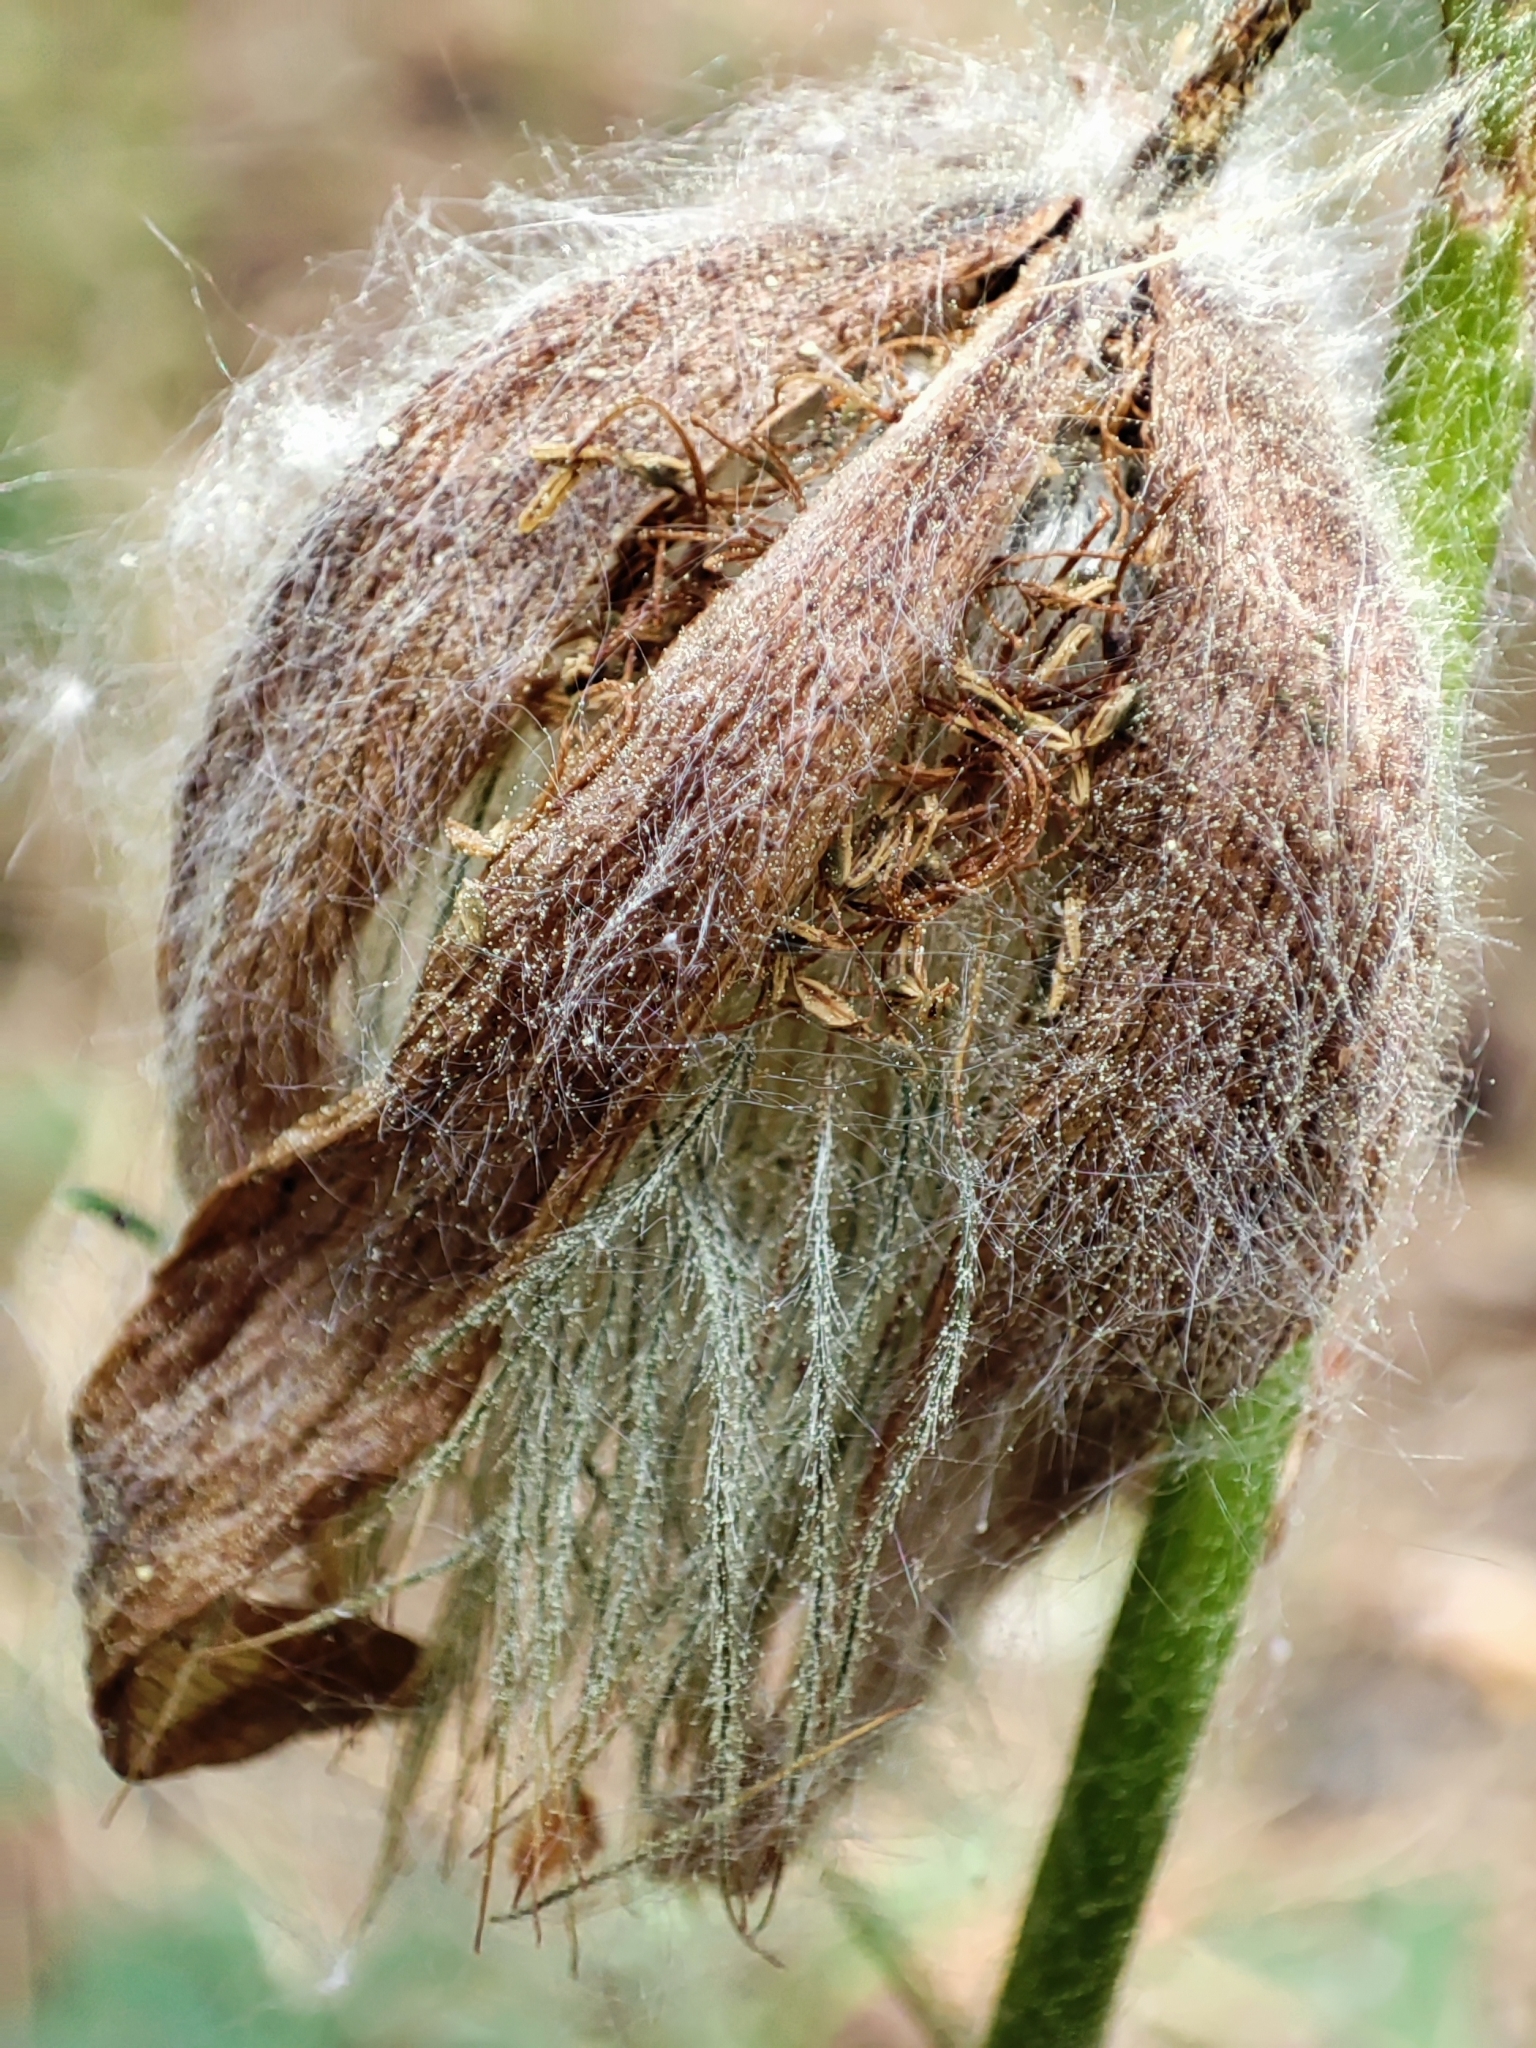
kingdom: Plantae
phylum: Tracheophyta
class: Magnoliopsida
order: Ranunculales
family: Ranunculaceae
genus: Pulsatilla
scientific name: Pulsatilla patens
